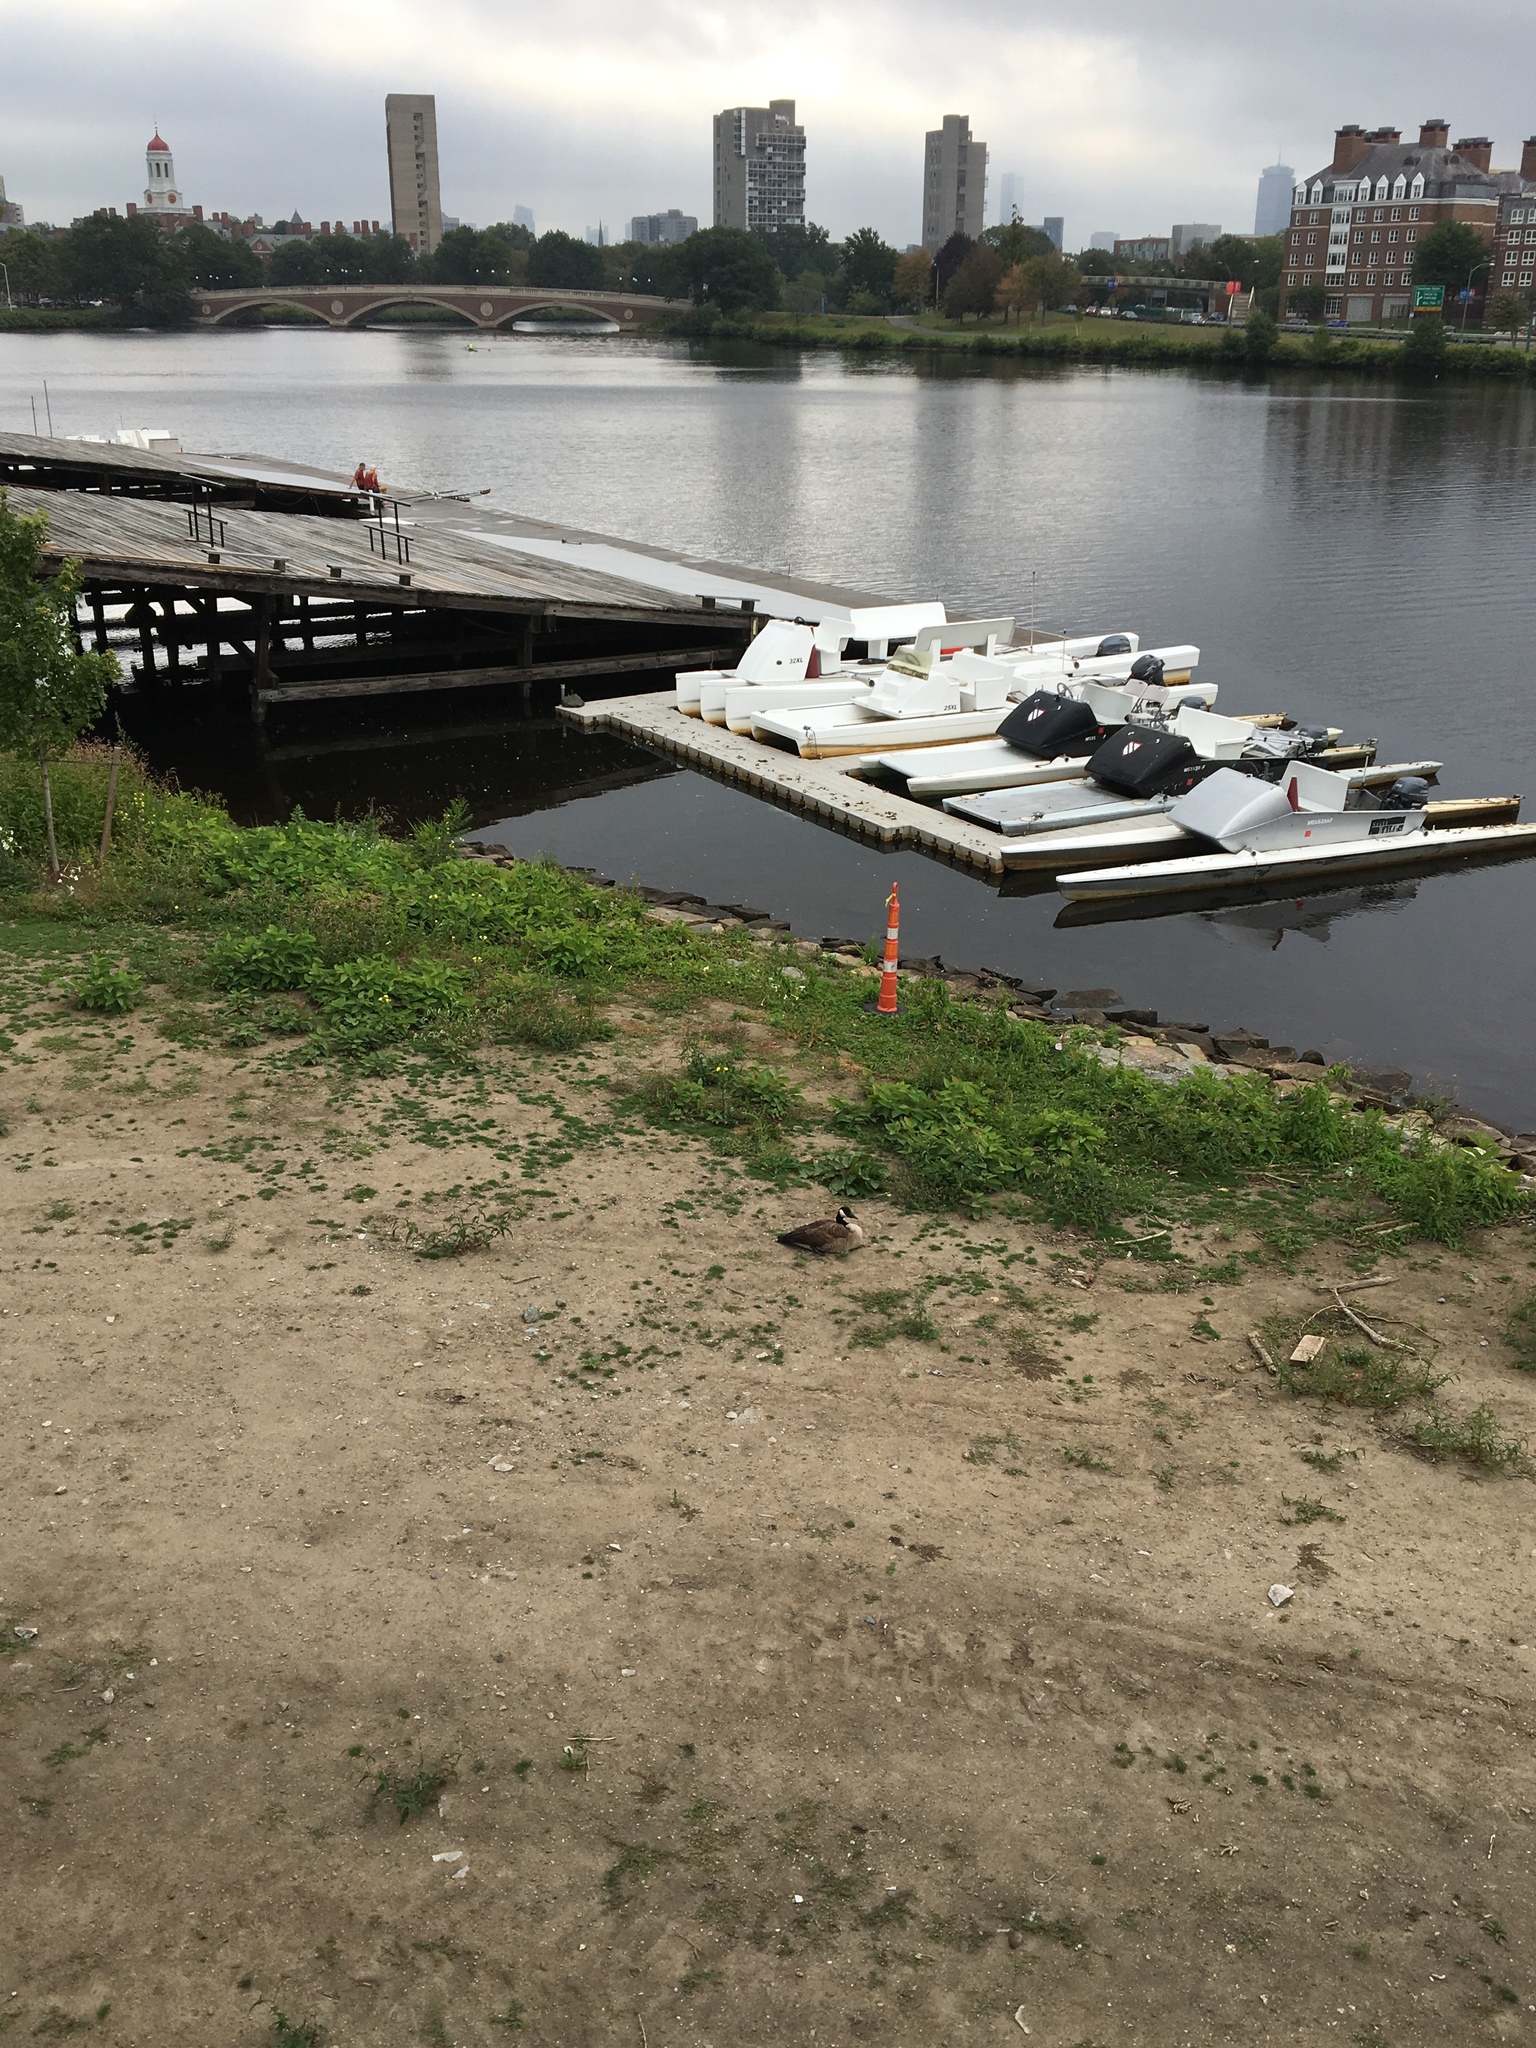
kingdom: Animalia
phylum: Chordata
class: Aves
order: Anseriformes
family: Anatidae
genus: Branta
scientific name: Branta canadensis
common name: Canada goose
